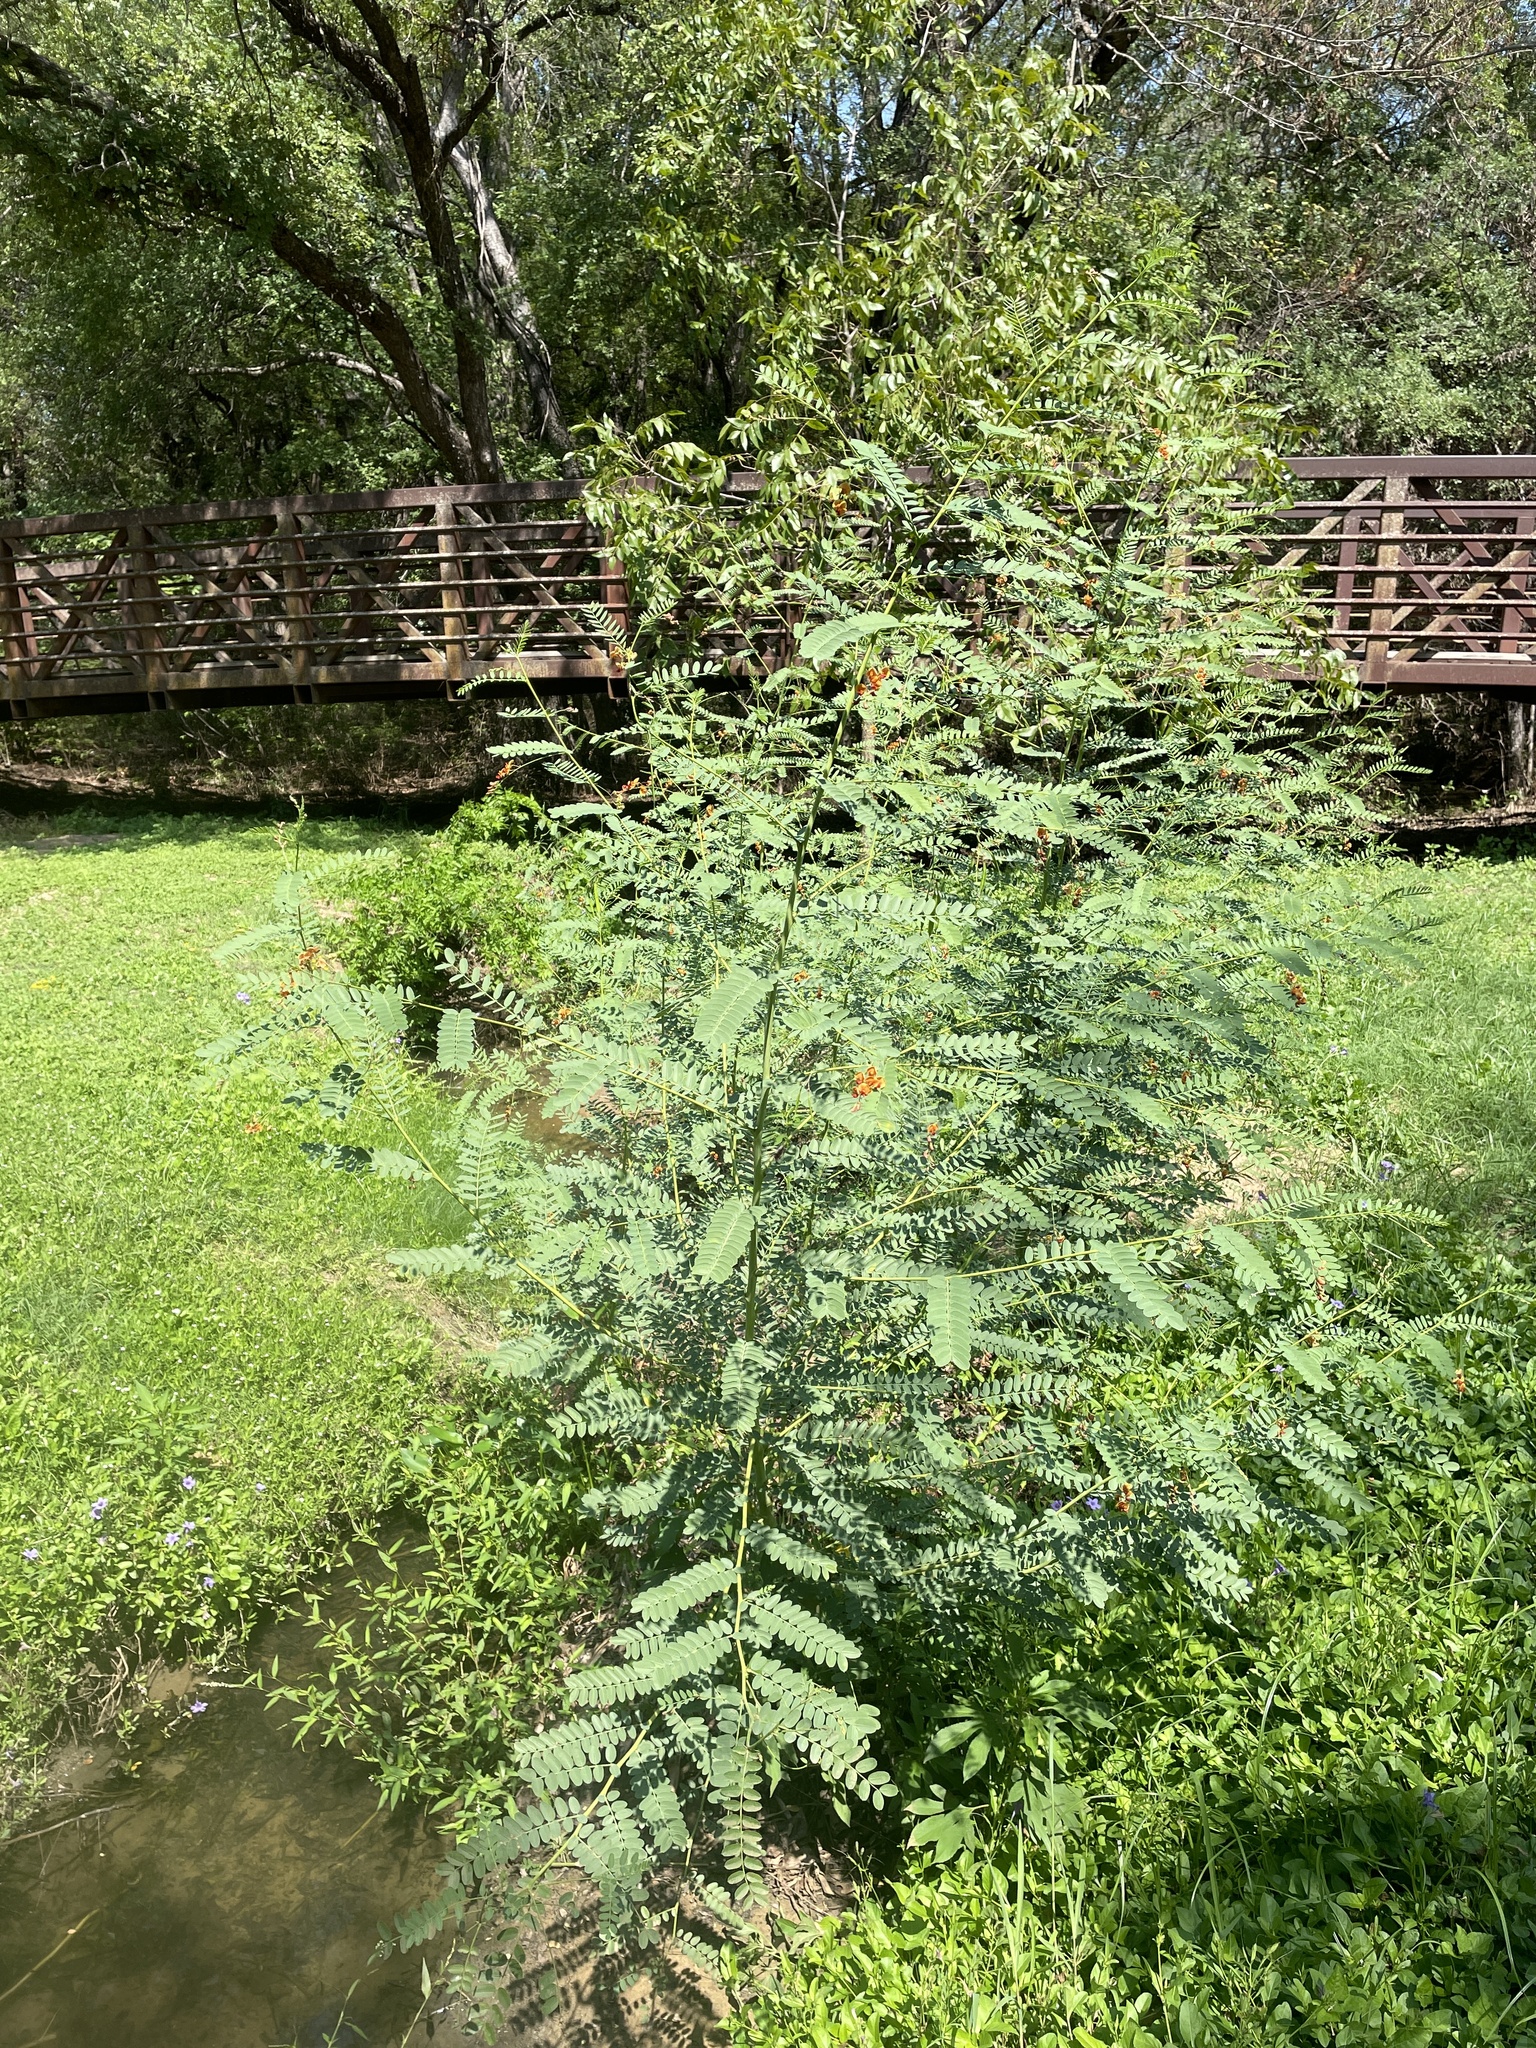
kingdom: Plantae
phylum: Tracheophyta
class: Magnoliopsida
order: Fabales
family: Fabaceae
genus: Sesbania
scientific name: Sesbania vesicaria
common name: Bagpod
